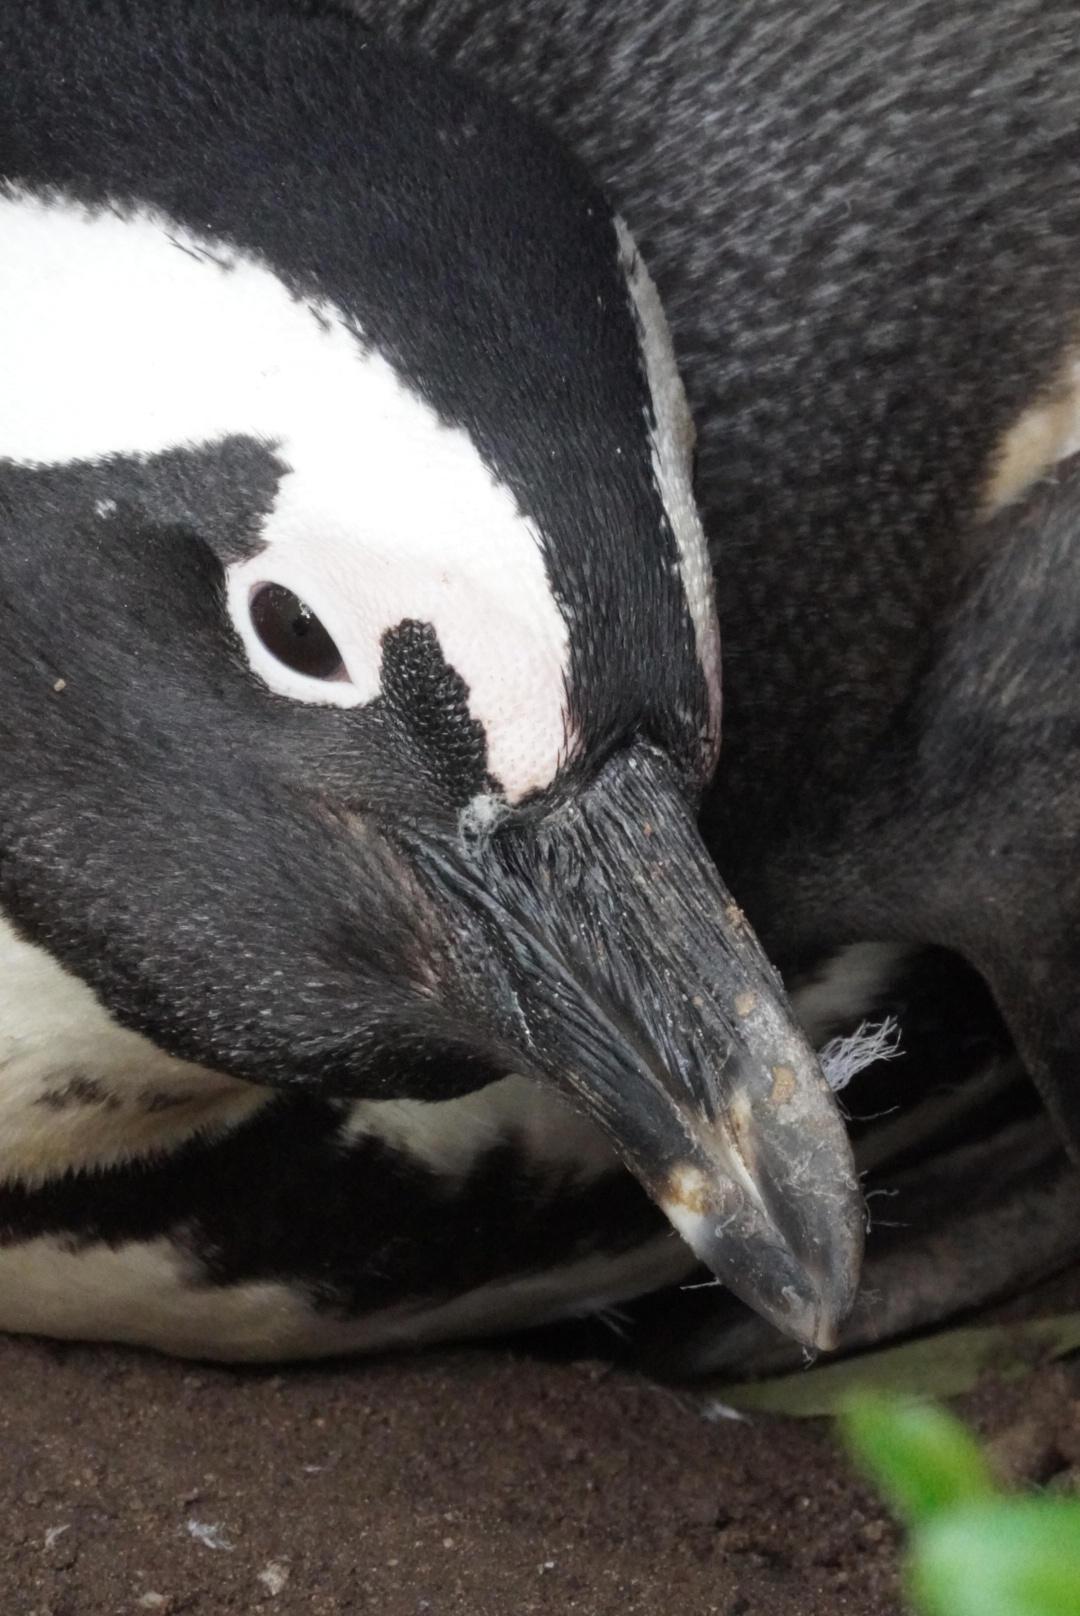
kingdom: Animalia
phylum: Chordata
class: Aves
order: Sphenisciformes
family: Spheniscidae
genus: Spheniscus
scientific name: Spheniscus demersus
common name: African penguin
